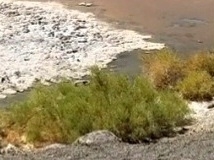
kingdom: Plantae
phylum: Tracheophyta
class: Magnoliopsida
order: Caryophyllales
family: Amaranthaceae
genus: Allenrolfea
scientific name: Allenrolfea occidentalis
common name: Iodine-bush
